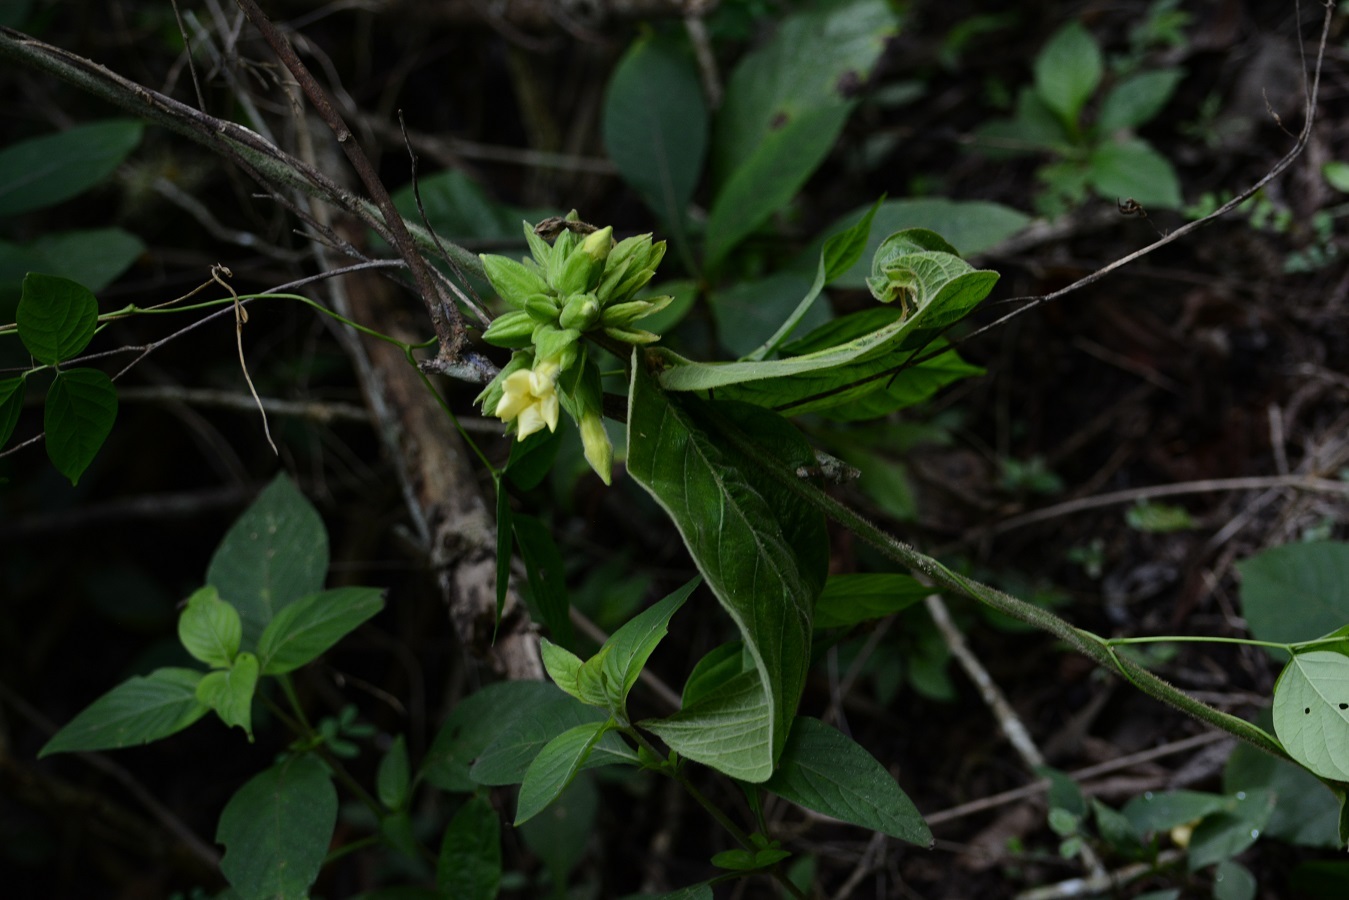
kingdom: Plantae
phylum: Tracheophyta
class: Magnoliopsida
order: Gentianales
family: Apocynaceae
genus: Prestonia
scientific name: Prestonia mexicana
